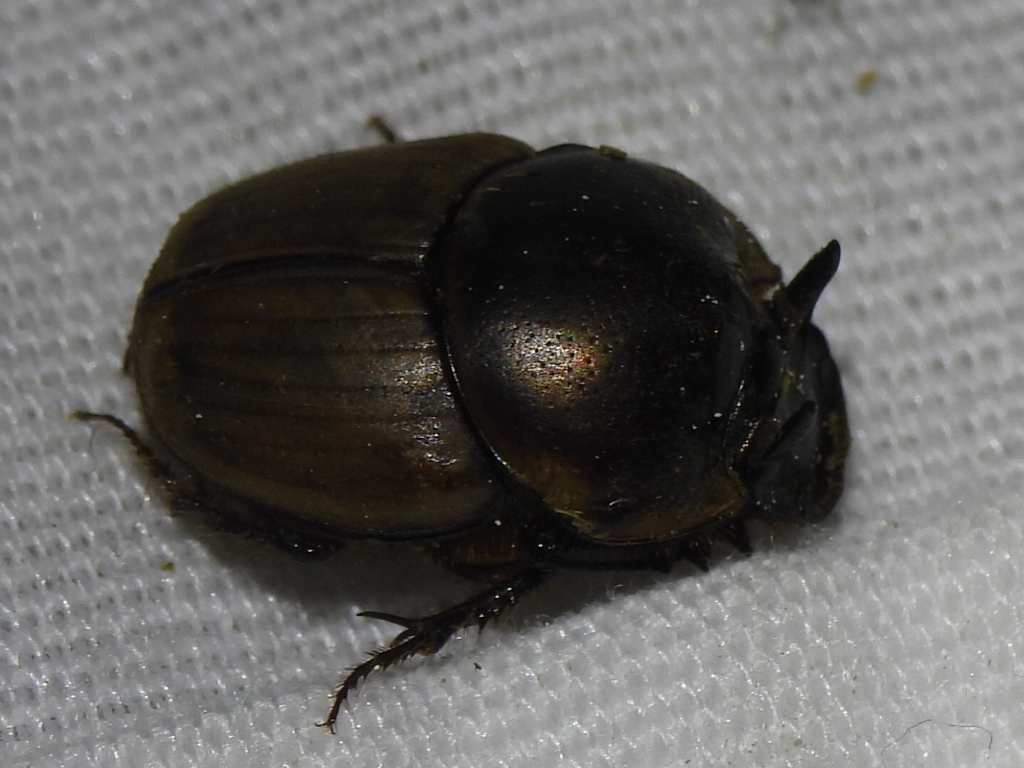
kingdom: Animalia
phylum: Arthropoda
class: Insecta
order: Coleoptera
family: Scarabaeidae
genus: Digitonthophagus
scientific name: Digitonthophagus gazella
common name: Brown dung beetle
